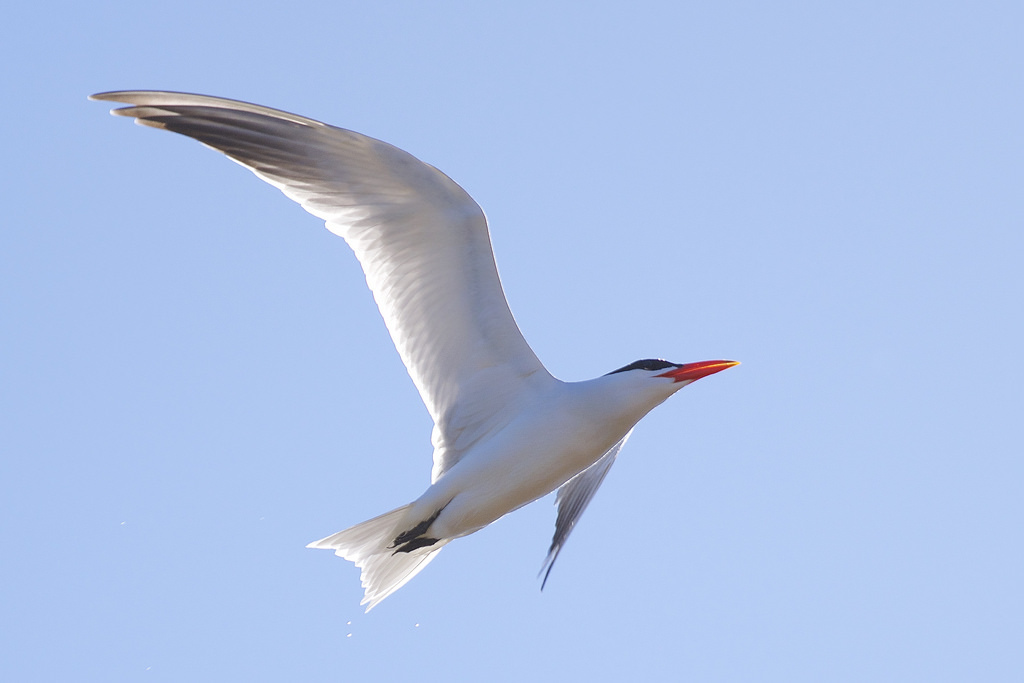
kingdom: Animalia
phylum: Chordata
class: Aves
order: Charadriiformes
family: Laridae
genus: Hydroprogne
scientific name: Hydroprogne caspia
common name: Caspian tern
